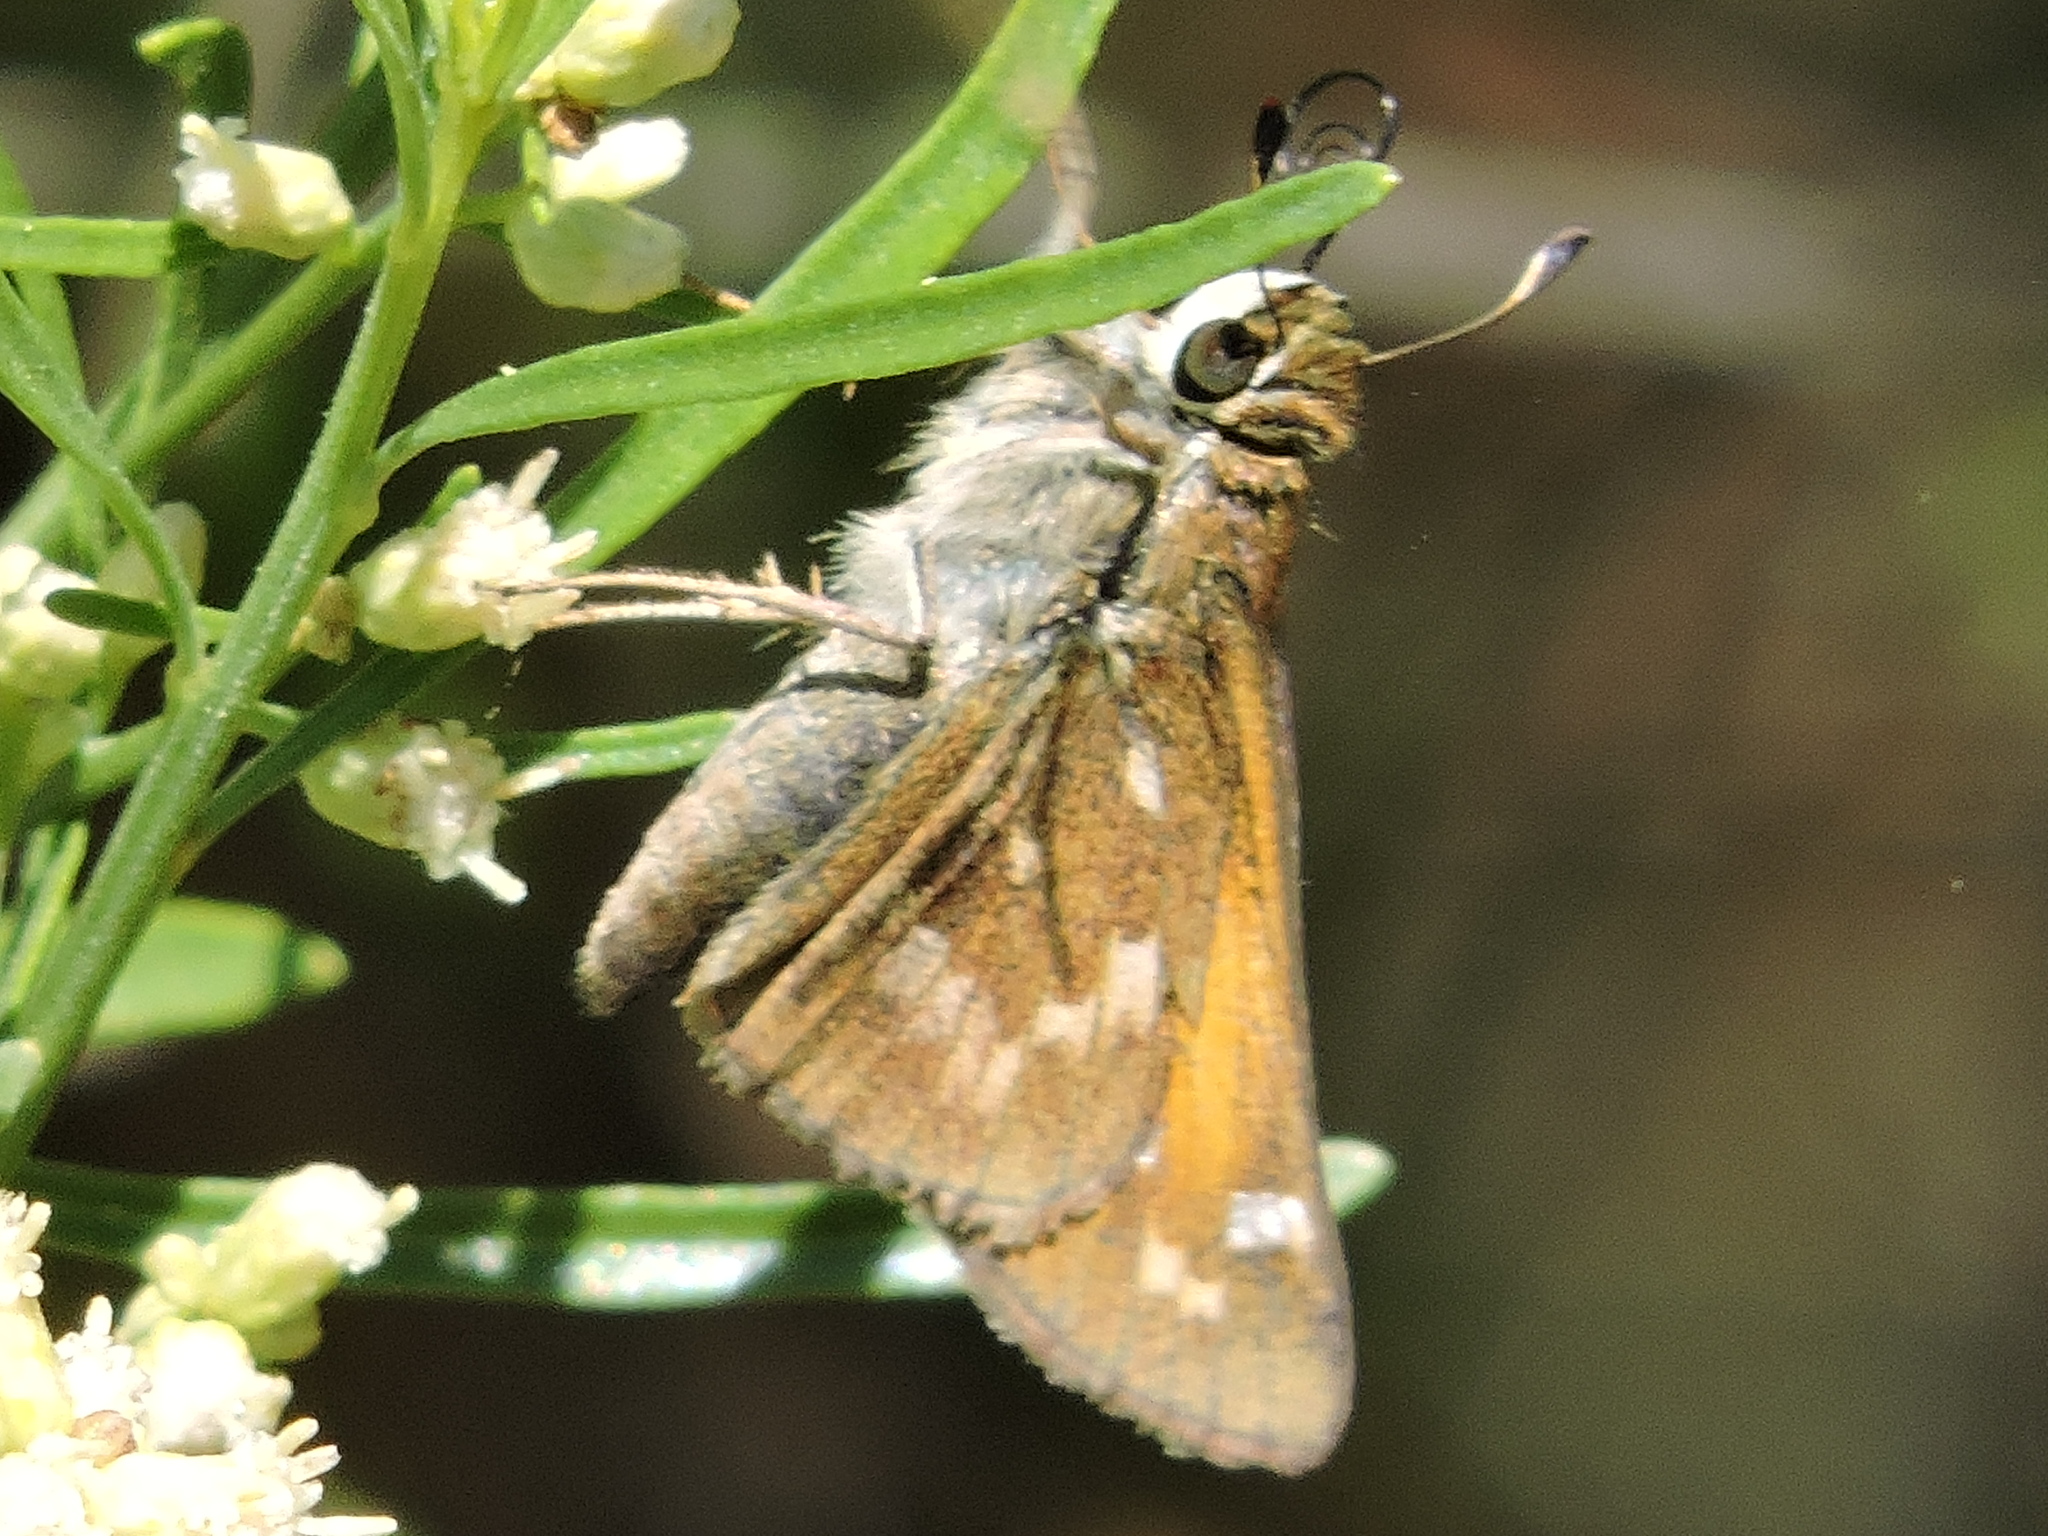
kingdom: Animalia
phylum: Arthropoda
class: Insecta
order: Lepidoptera
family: Hesperiidae
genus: Atalopedes
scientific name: Atalopedes
